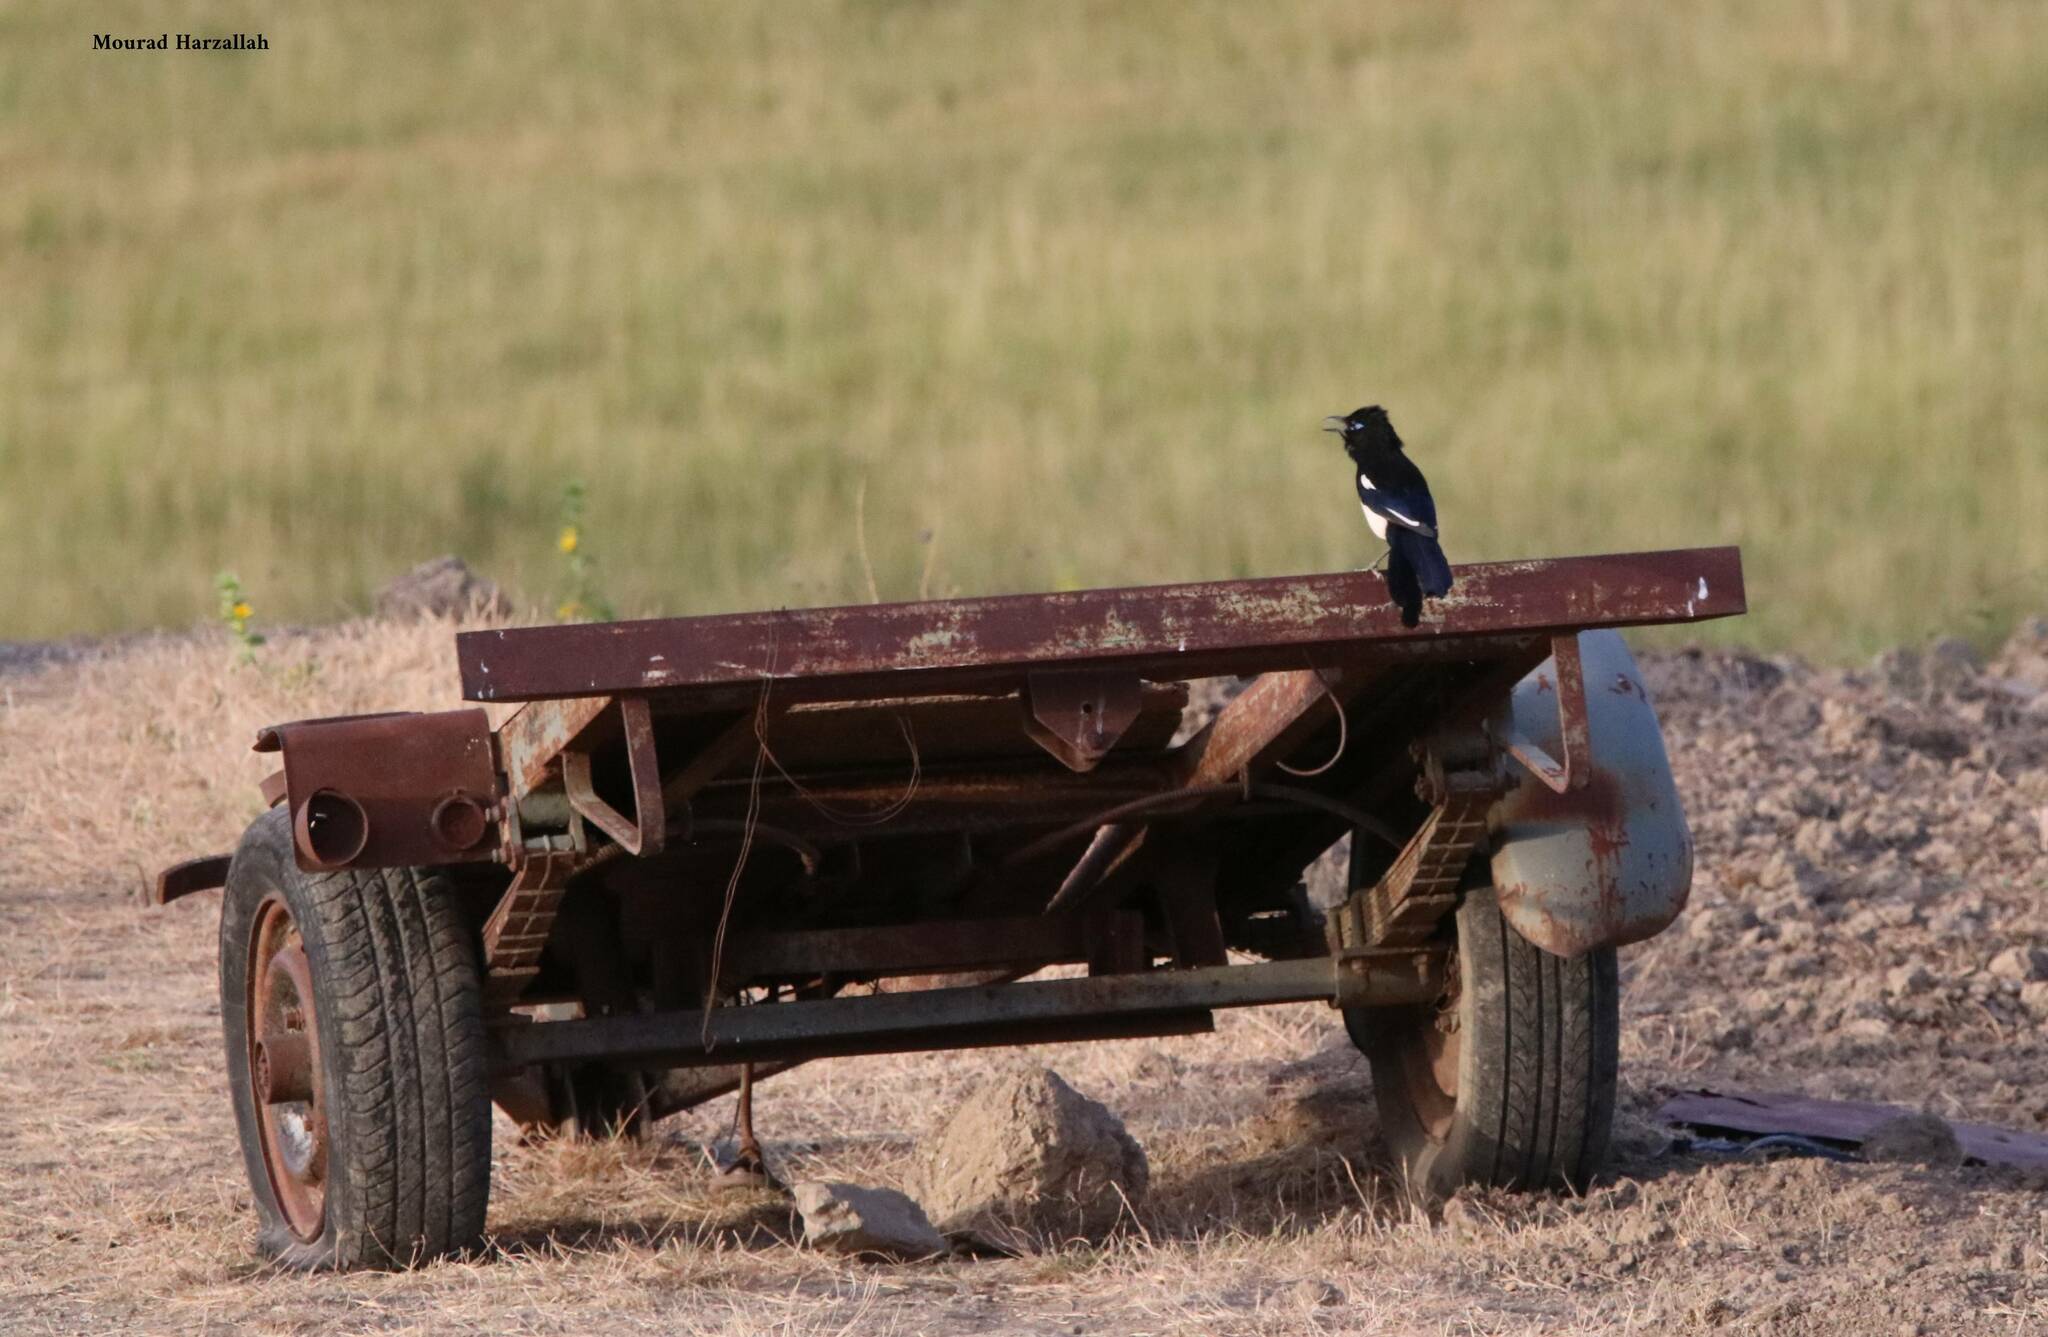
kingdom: Animalia
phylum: Chordata
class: Aves
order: Passeriformes
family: Corvidae
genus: Pica
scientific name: Pica mauritanica
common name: Maghreb magpie
